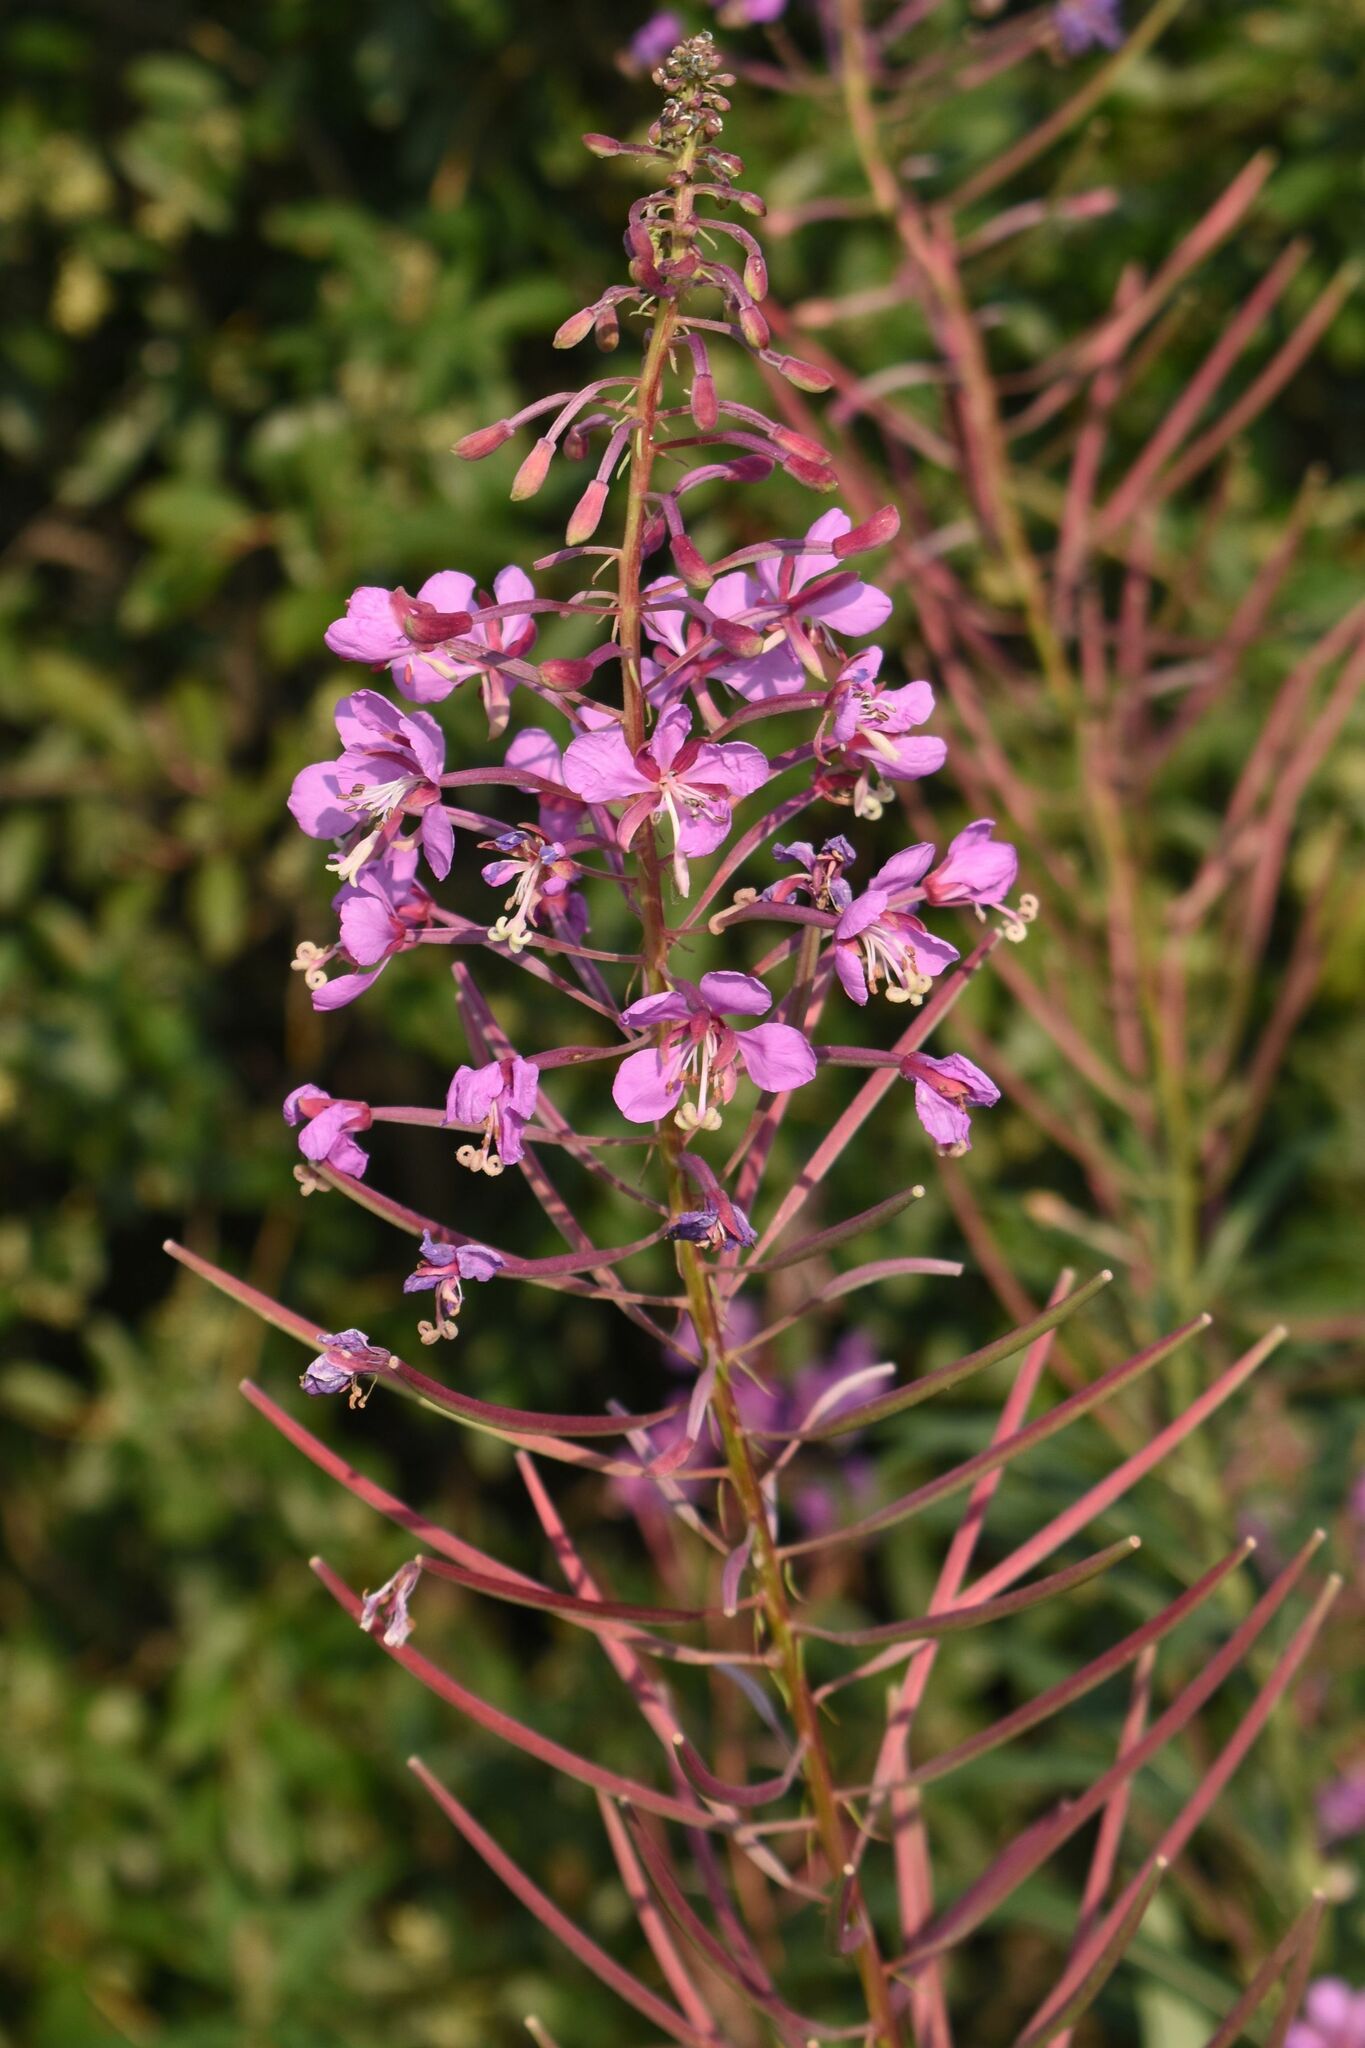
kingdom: Plantae
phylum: Tracheophyta
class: Magnoliopsida
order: Myrtales
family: Onagraceae
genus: Chamaenerion
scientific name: Chamaenerion angustifolium
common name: Fireweed
